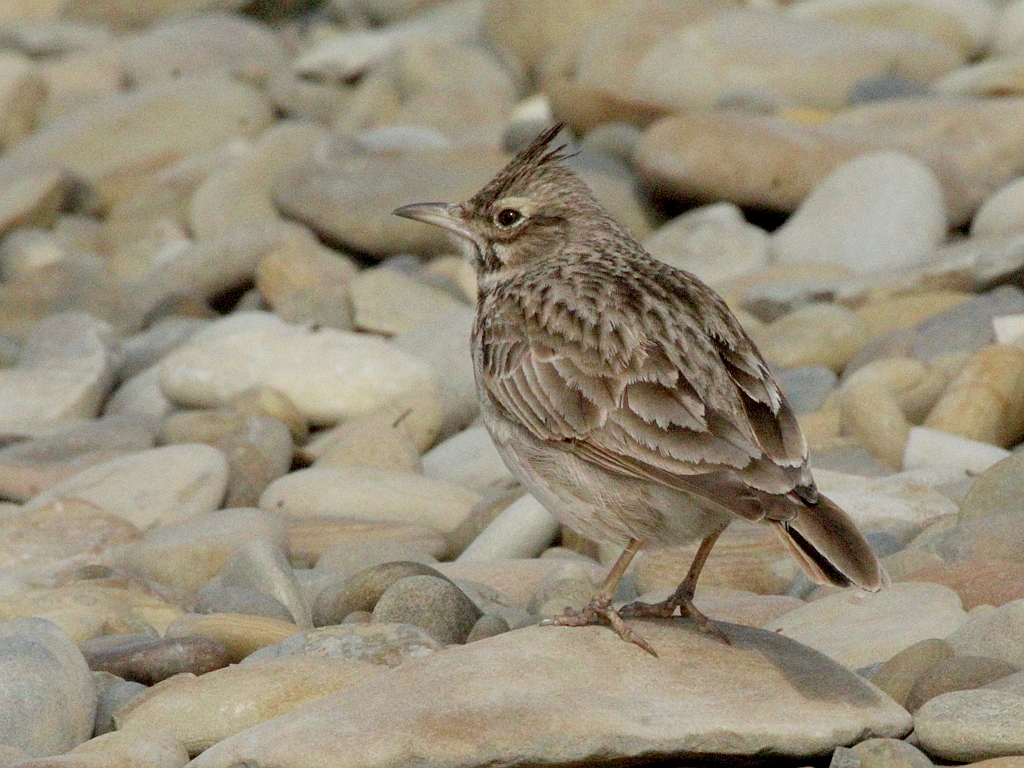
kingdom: Animalia
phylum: Chordata
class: Aves
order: Passeriformes
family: Alaudidae
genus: Galerida
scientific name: Galerida cristata
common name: Crested lark
